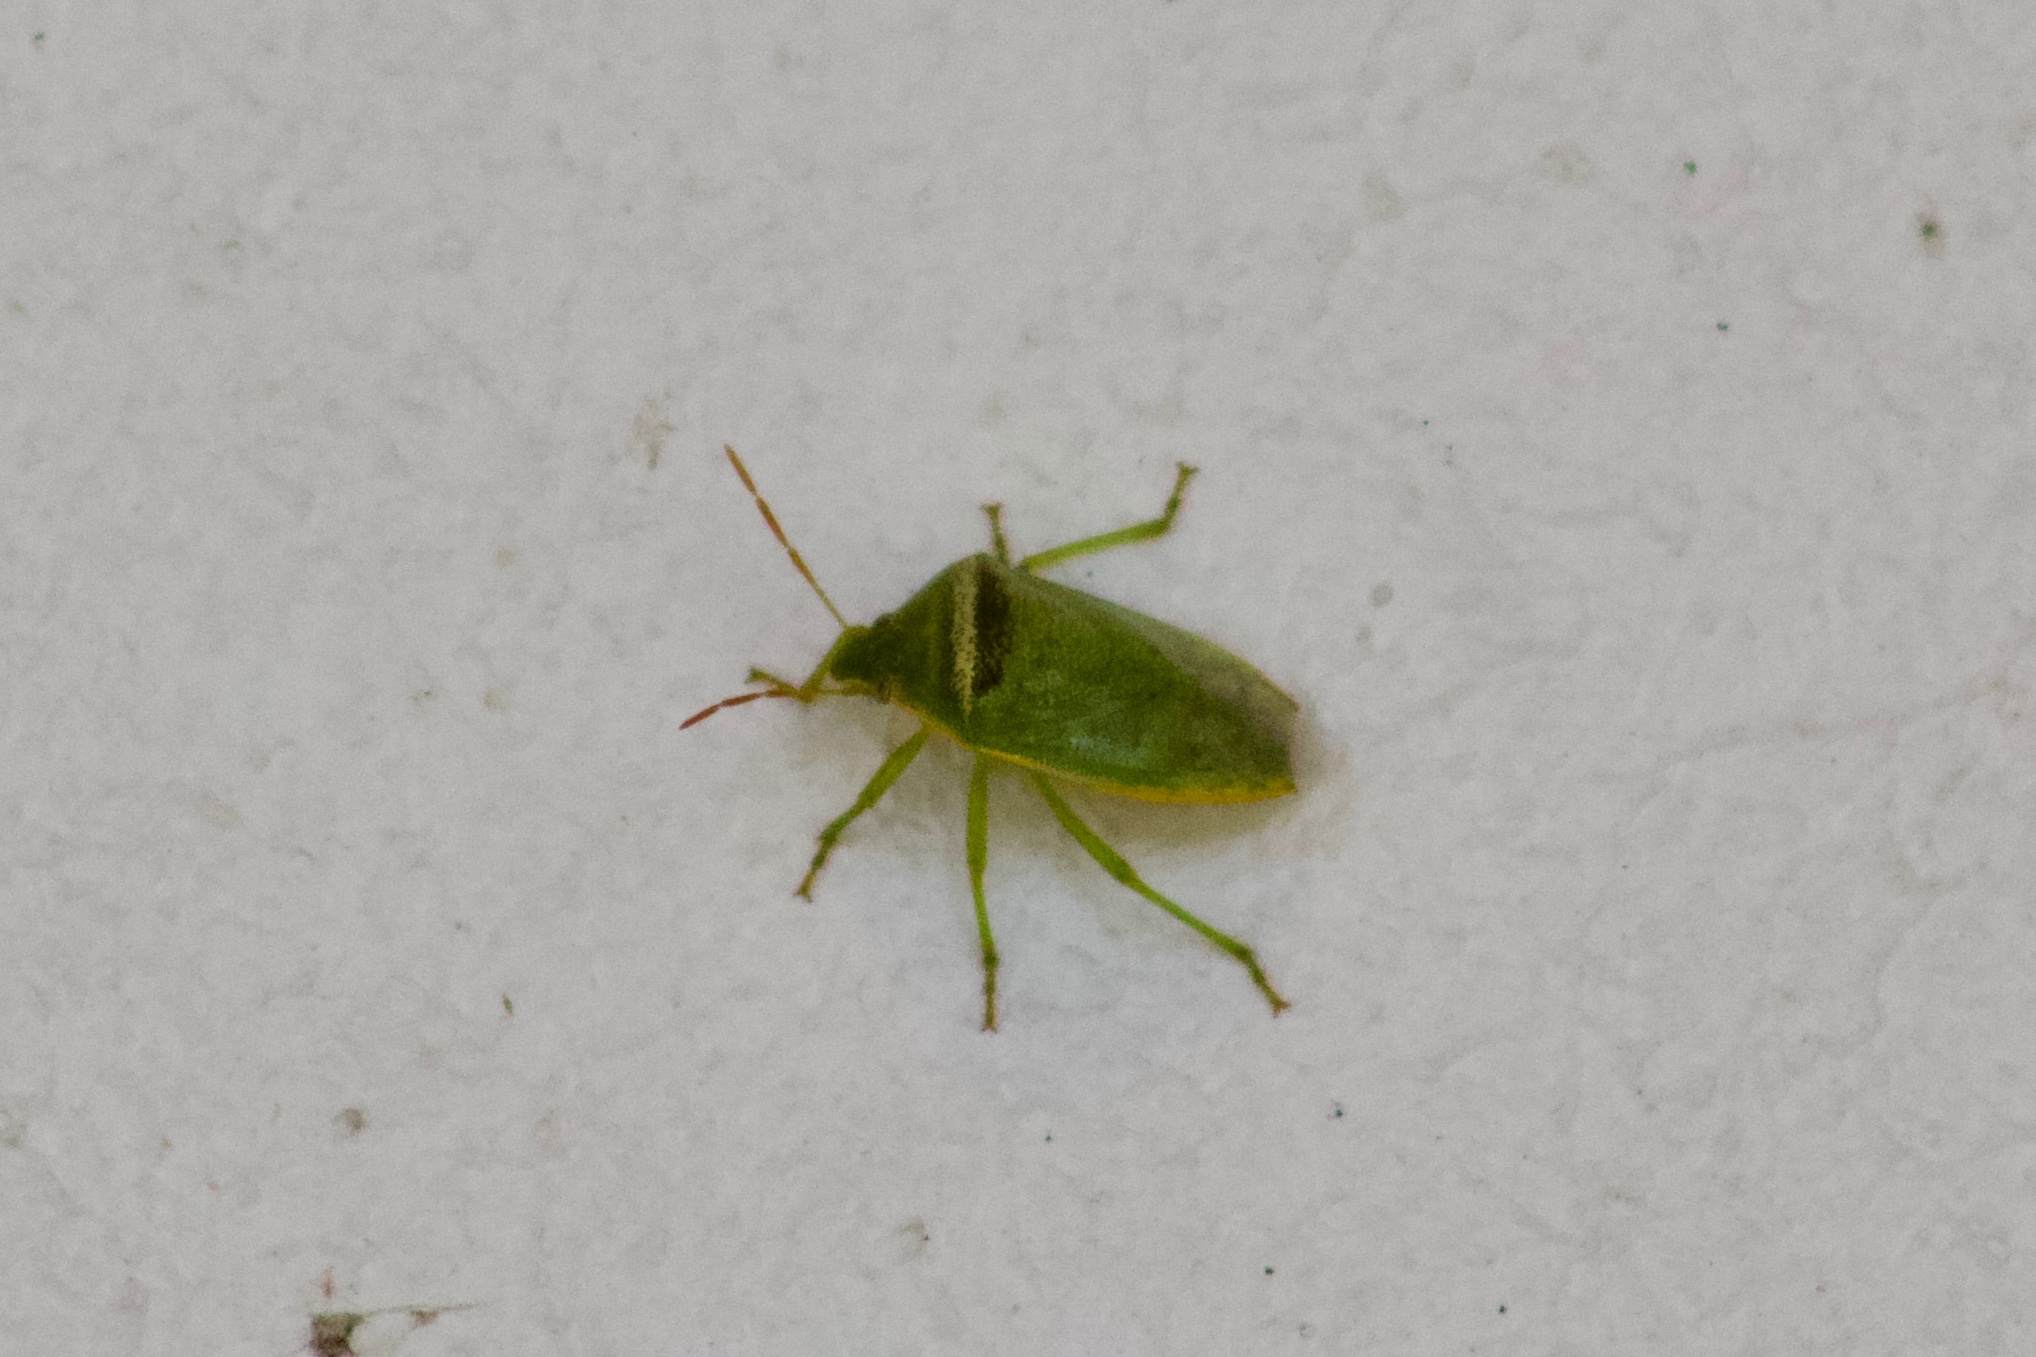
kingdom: Animalia
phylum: Arthropoda
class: Insecta
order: Hemiptera
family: Pentatomidae
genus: Piezodorus
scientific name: Piezodorus guildinii
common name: Redbanded stink bug
